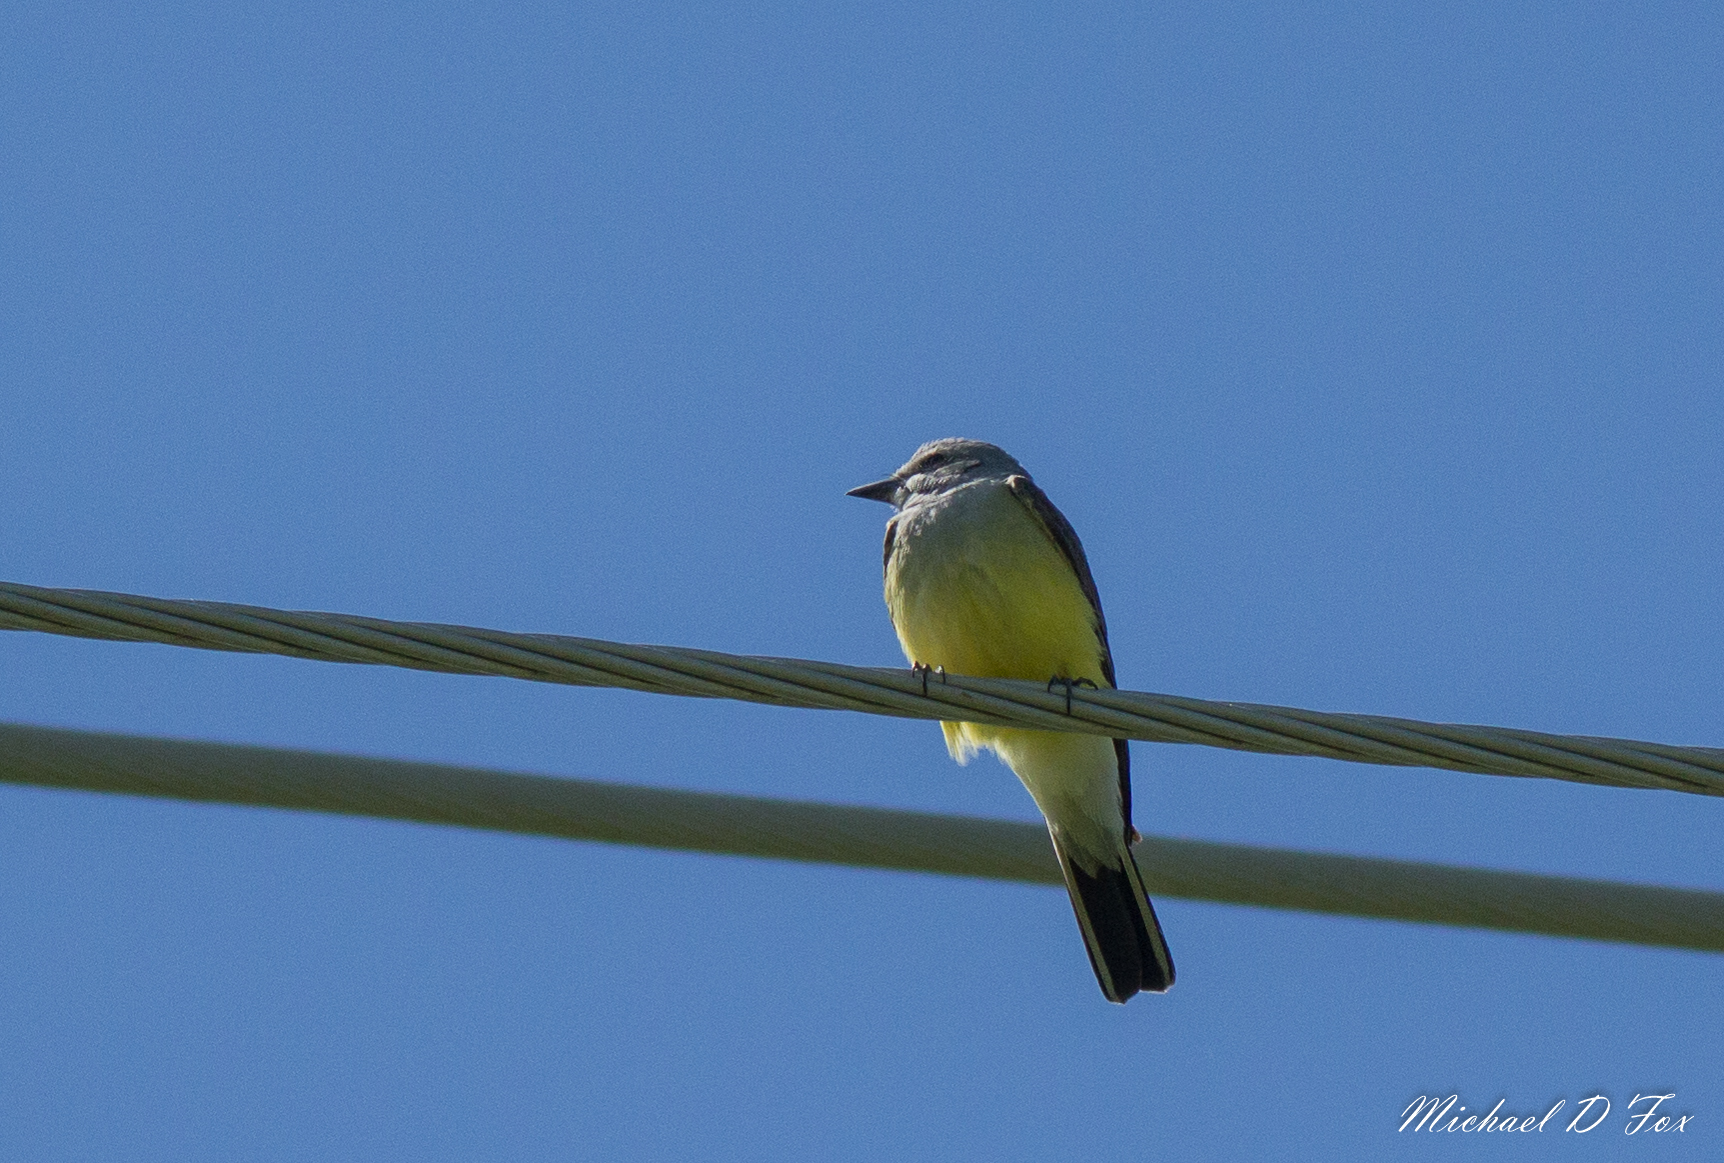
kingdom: Animalia
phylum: Chordata
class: Aves
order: Passeriformes
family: Tyrannidae
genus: Tyrannus
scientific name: Tyrannus verticalis
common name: Western kingbird
